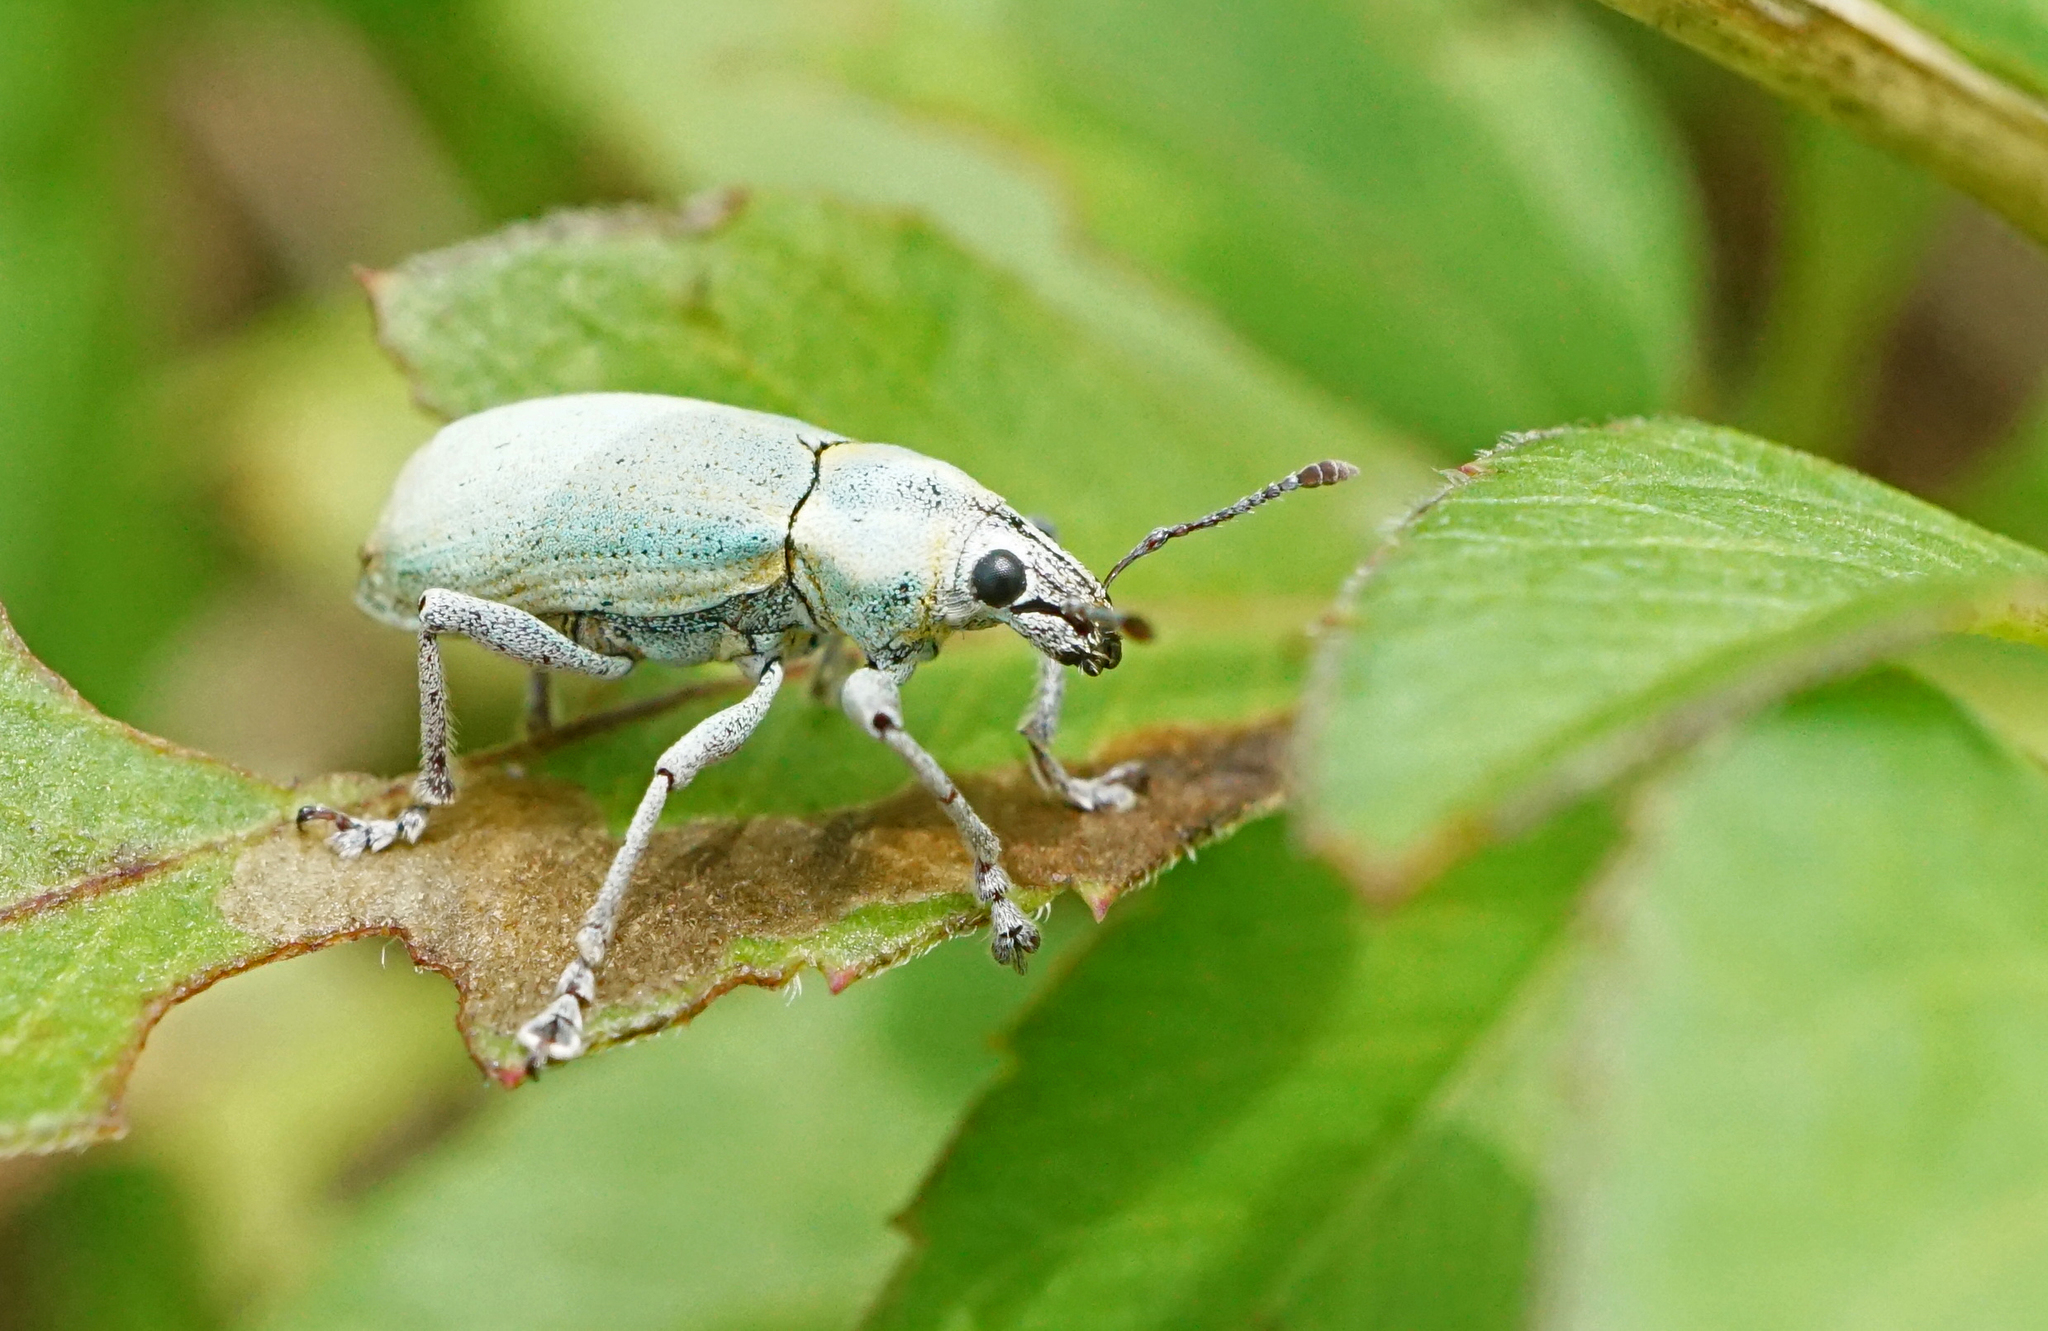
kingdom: Animalia
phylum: Arthropoda
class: Insecta
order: Coleoptera
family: Curculionidae
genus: Pachnaeus
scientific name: Pachnaeus litus
